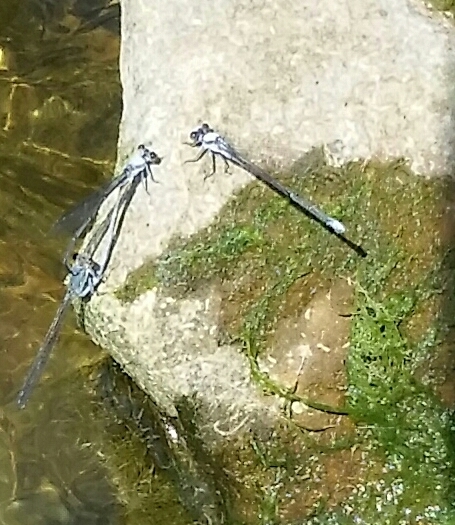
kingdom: Animalia
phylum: Arthropoda
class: Insecta
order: Odonata
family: Coenagrionidae
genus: Argia
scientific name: Argia moesta
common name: Powdered dancer
